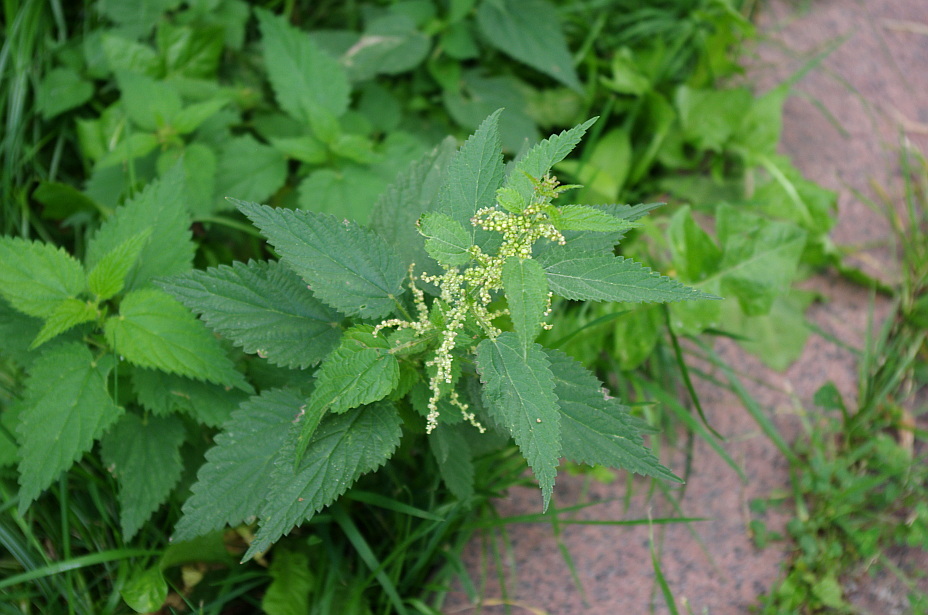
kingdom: Plantae
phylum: Tracheophyta
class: Magnoliopsida
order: Rosales
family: Urticaceae
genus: Urtica
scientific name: Urtica dioica
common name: Common nettle
